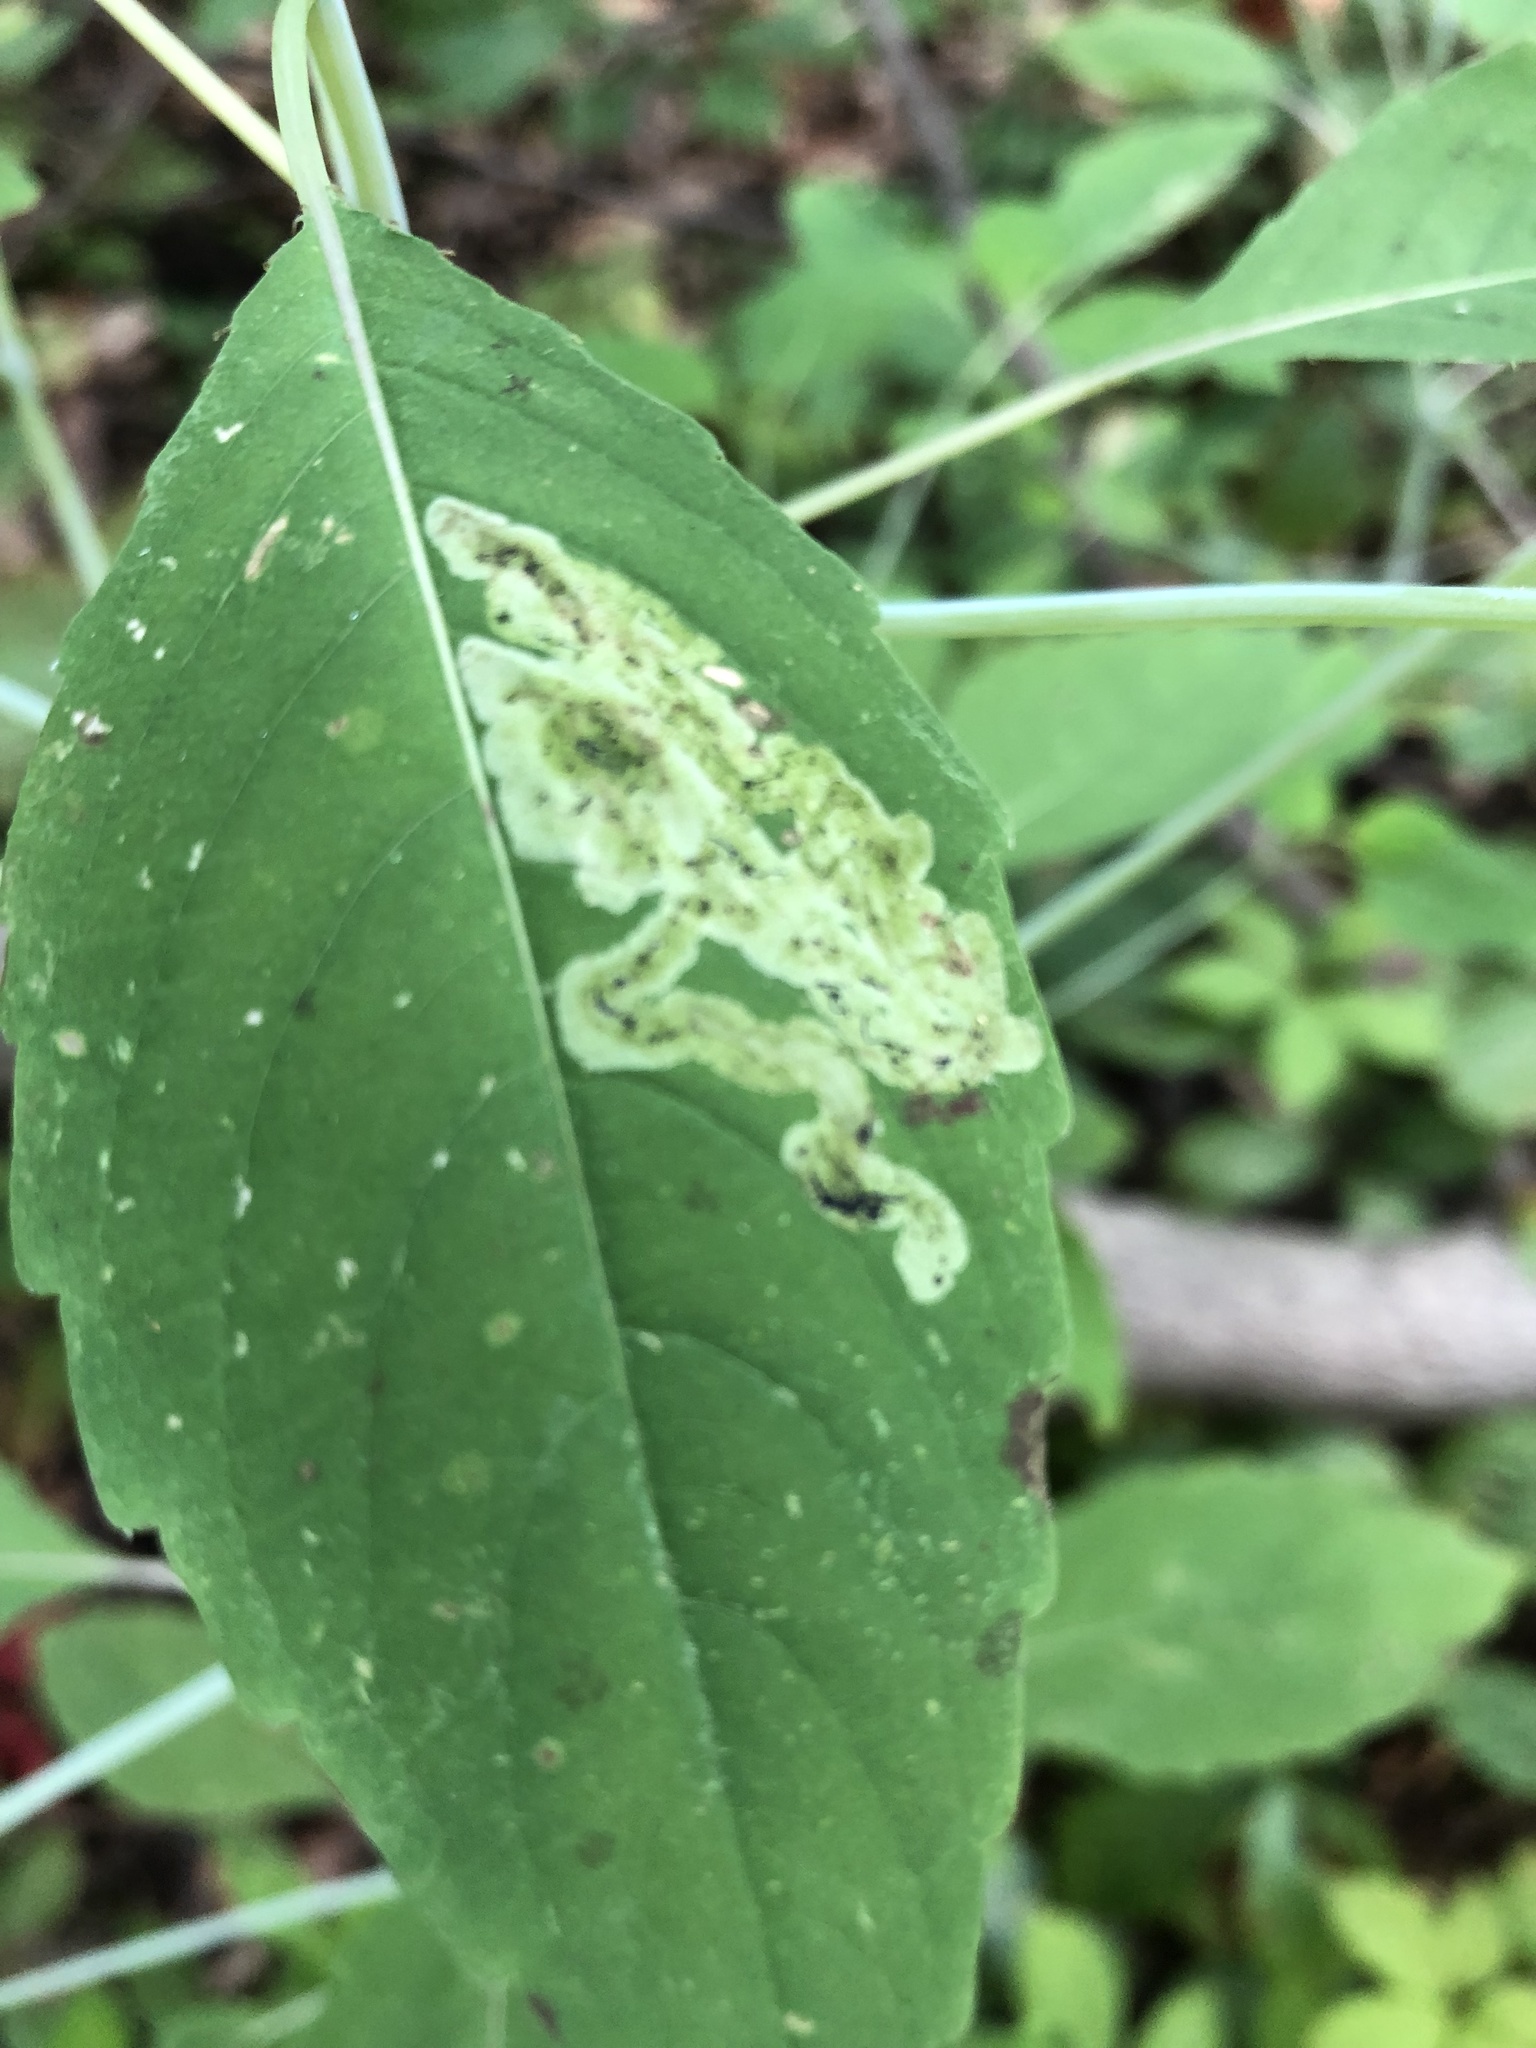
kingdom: Animalia
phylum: Arthropoda
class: Insecta
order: Diptera
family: Agromyzidae
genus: Phytoliriomyza
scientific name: Phytoliriomyza melampyga
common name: Jewelweed leaf-miner fly
